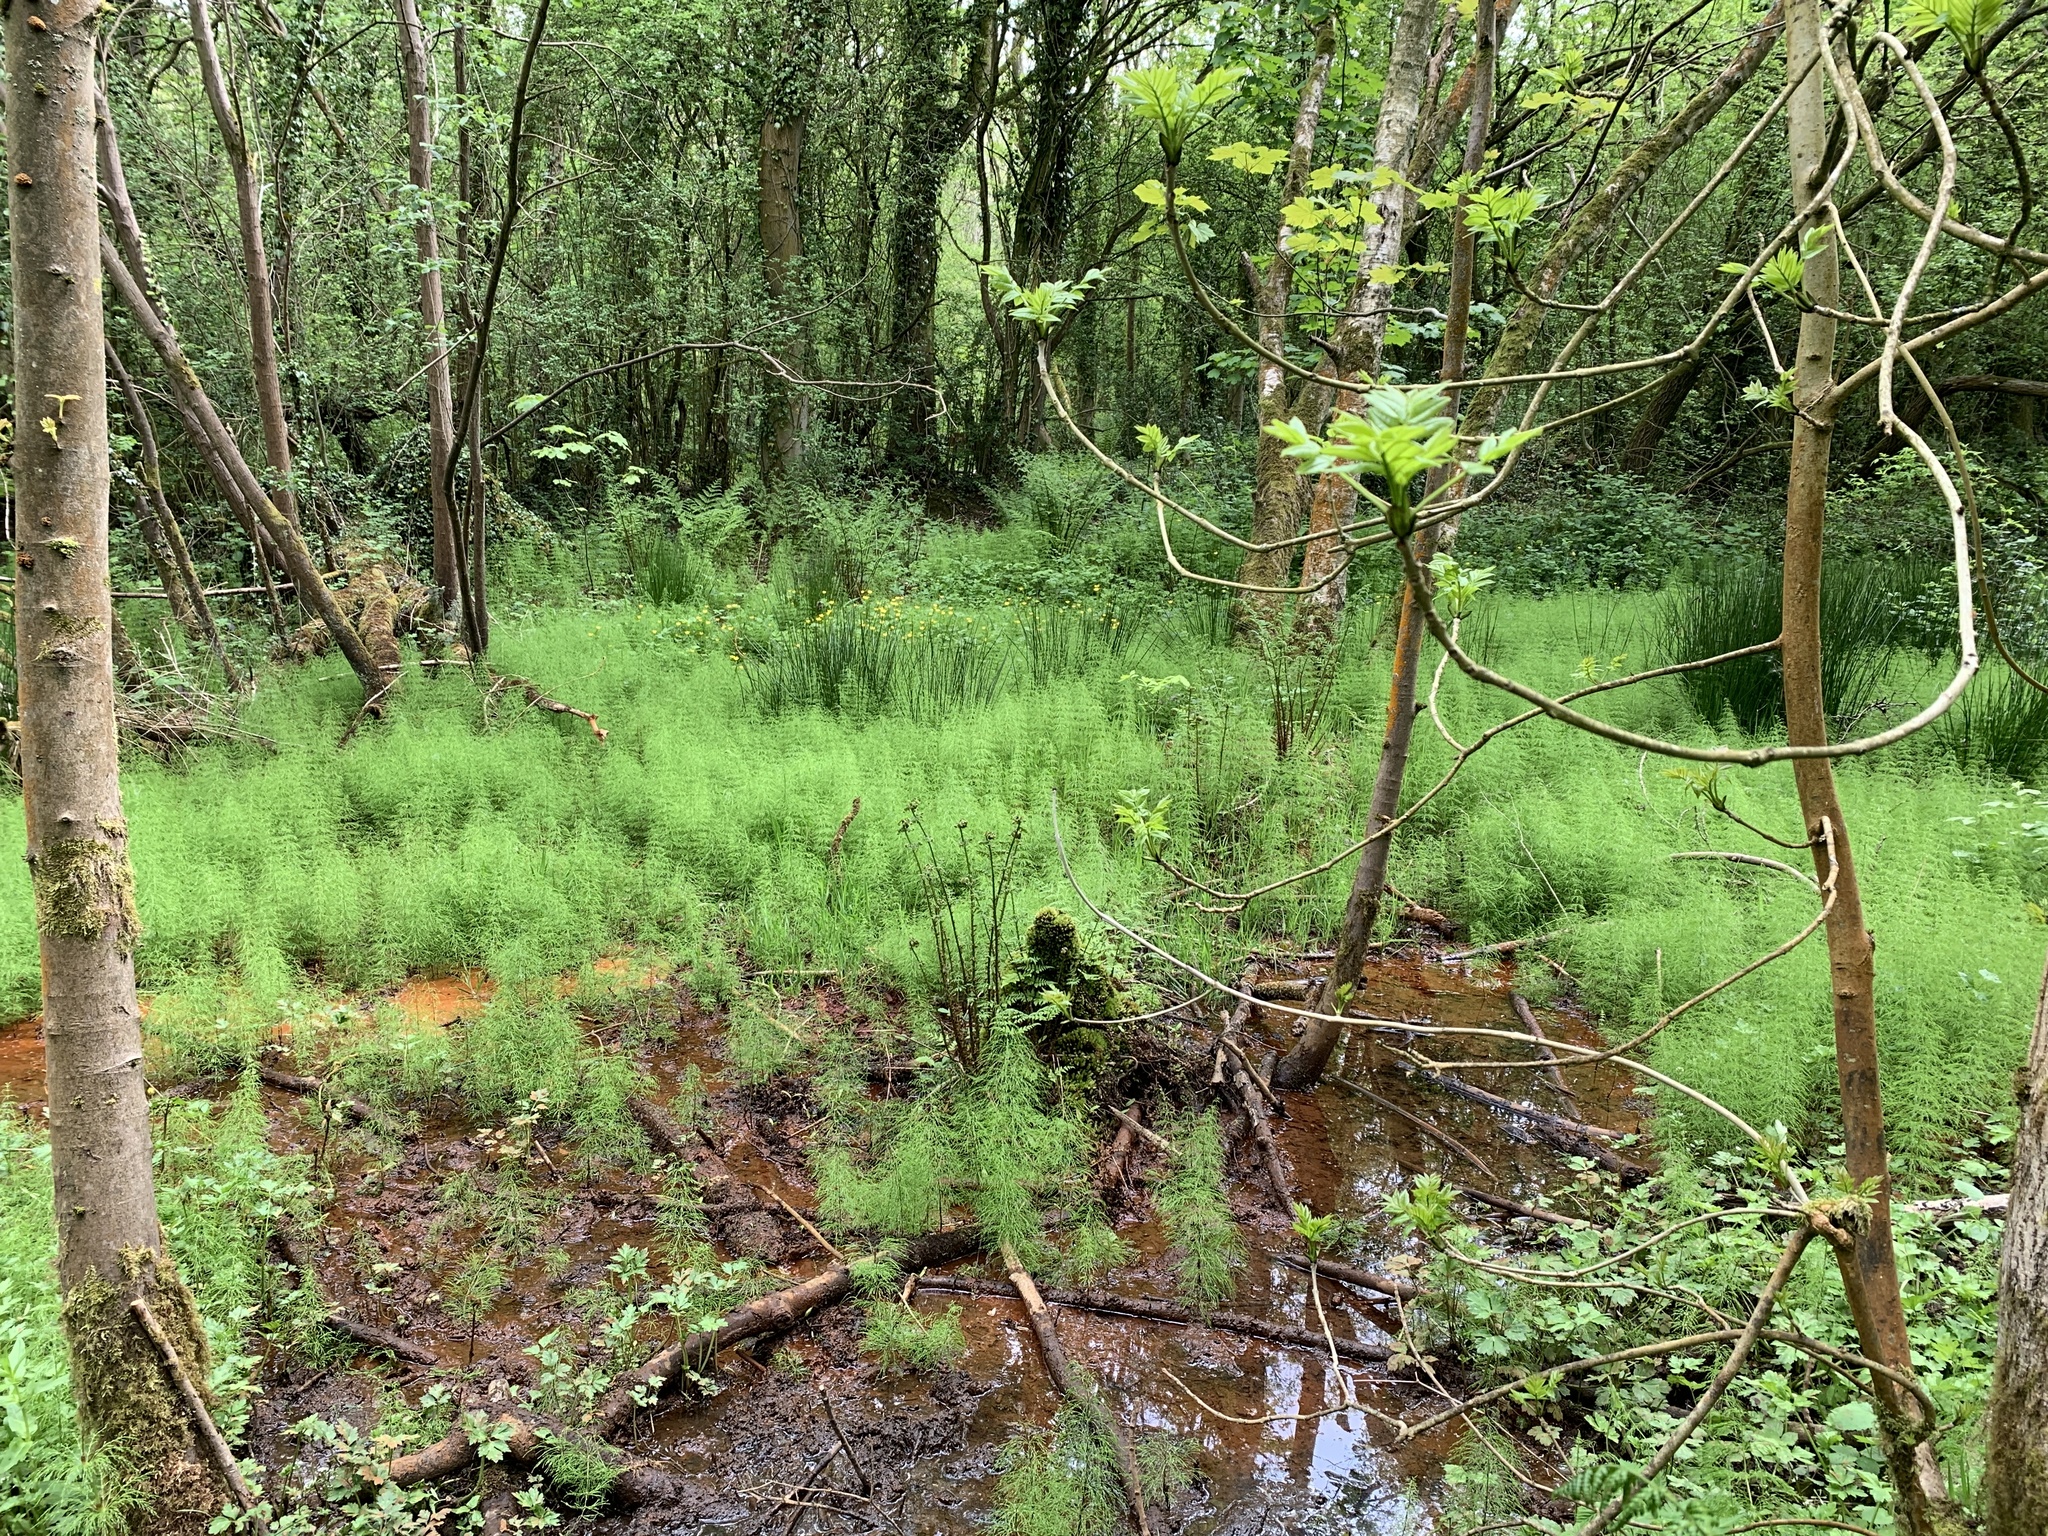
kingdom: Plantae
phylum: Tracheophyta
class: Polypodiopsida
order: Equisetales
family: Equisetaceae
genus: Equisetum
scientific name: Equisetum sylvaticum
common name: Wood horsetail
